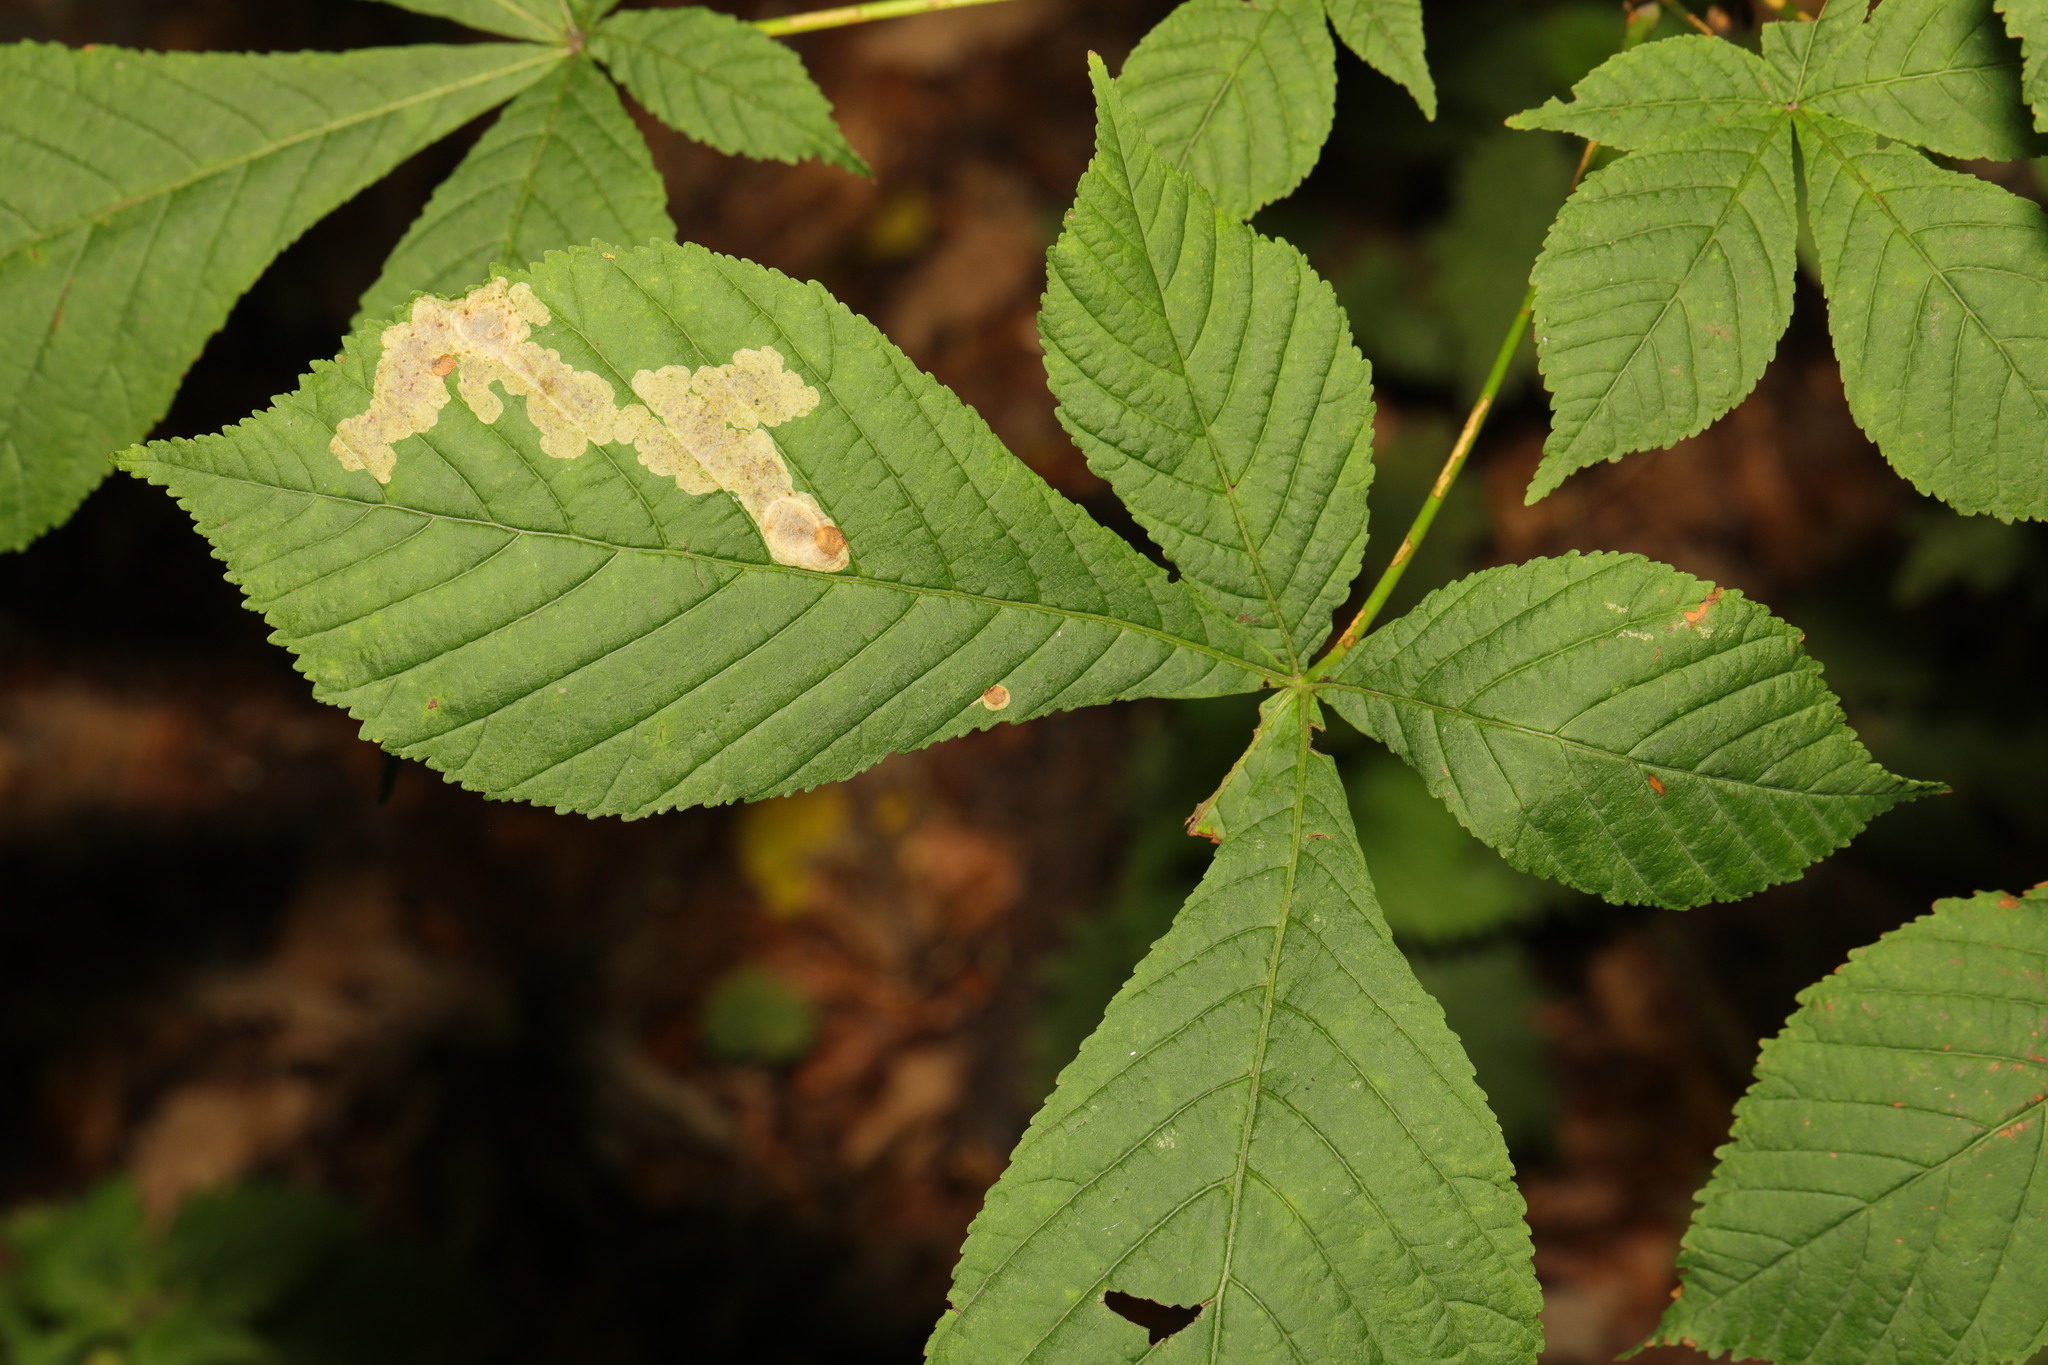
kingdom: Plantae
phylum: Tracheophyta
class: Magnoliopsida
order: Sapindales
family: Sapindaceae
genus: Aesculus
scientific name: Aesculus hippocastanum
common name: Horse-chestnut
